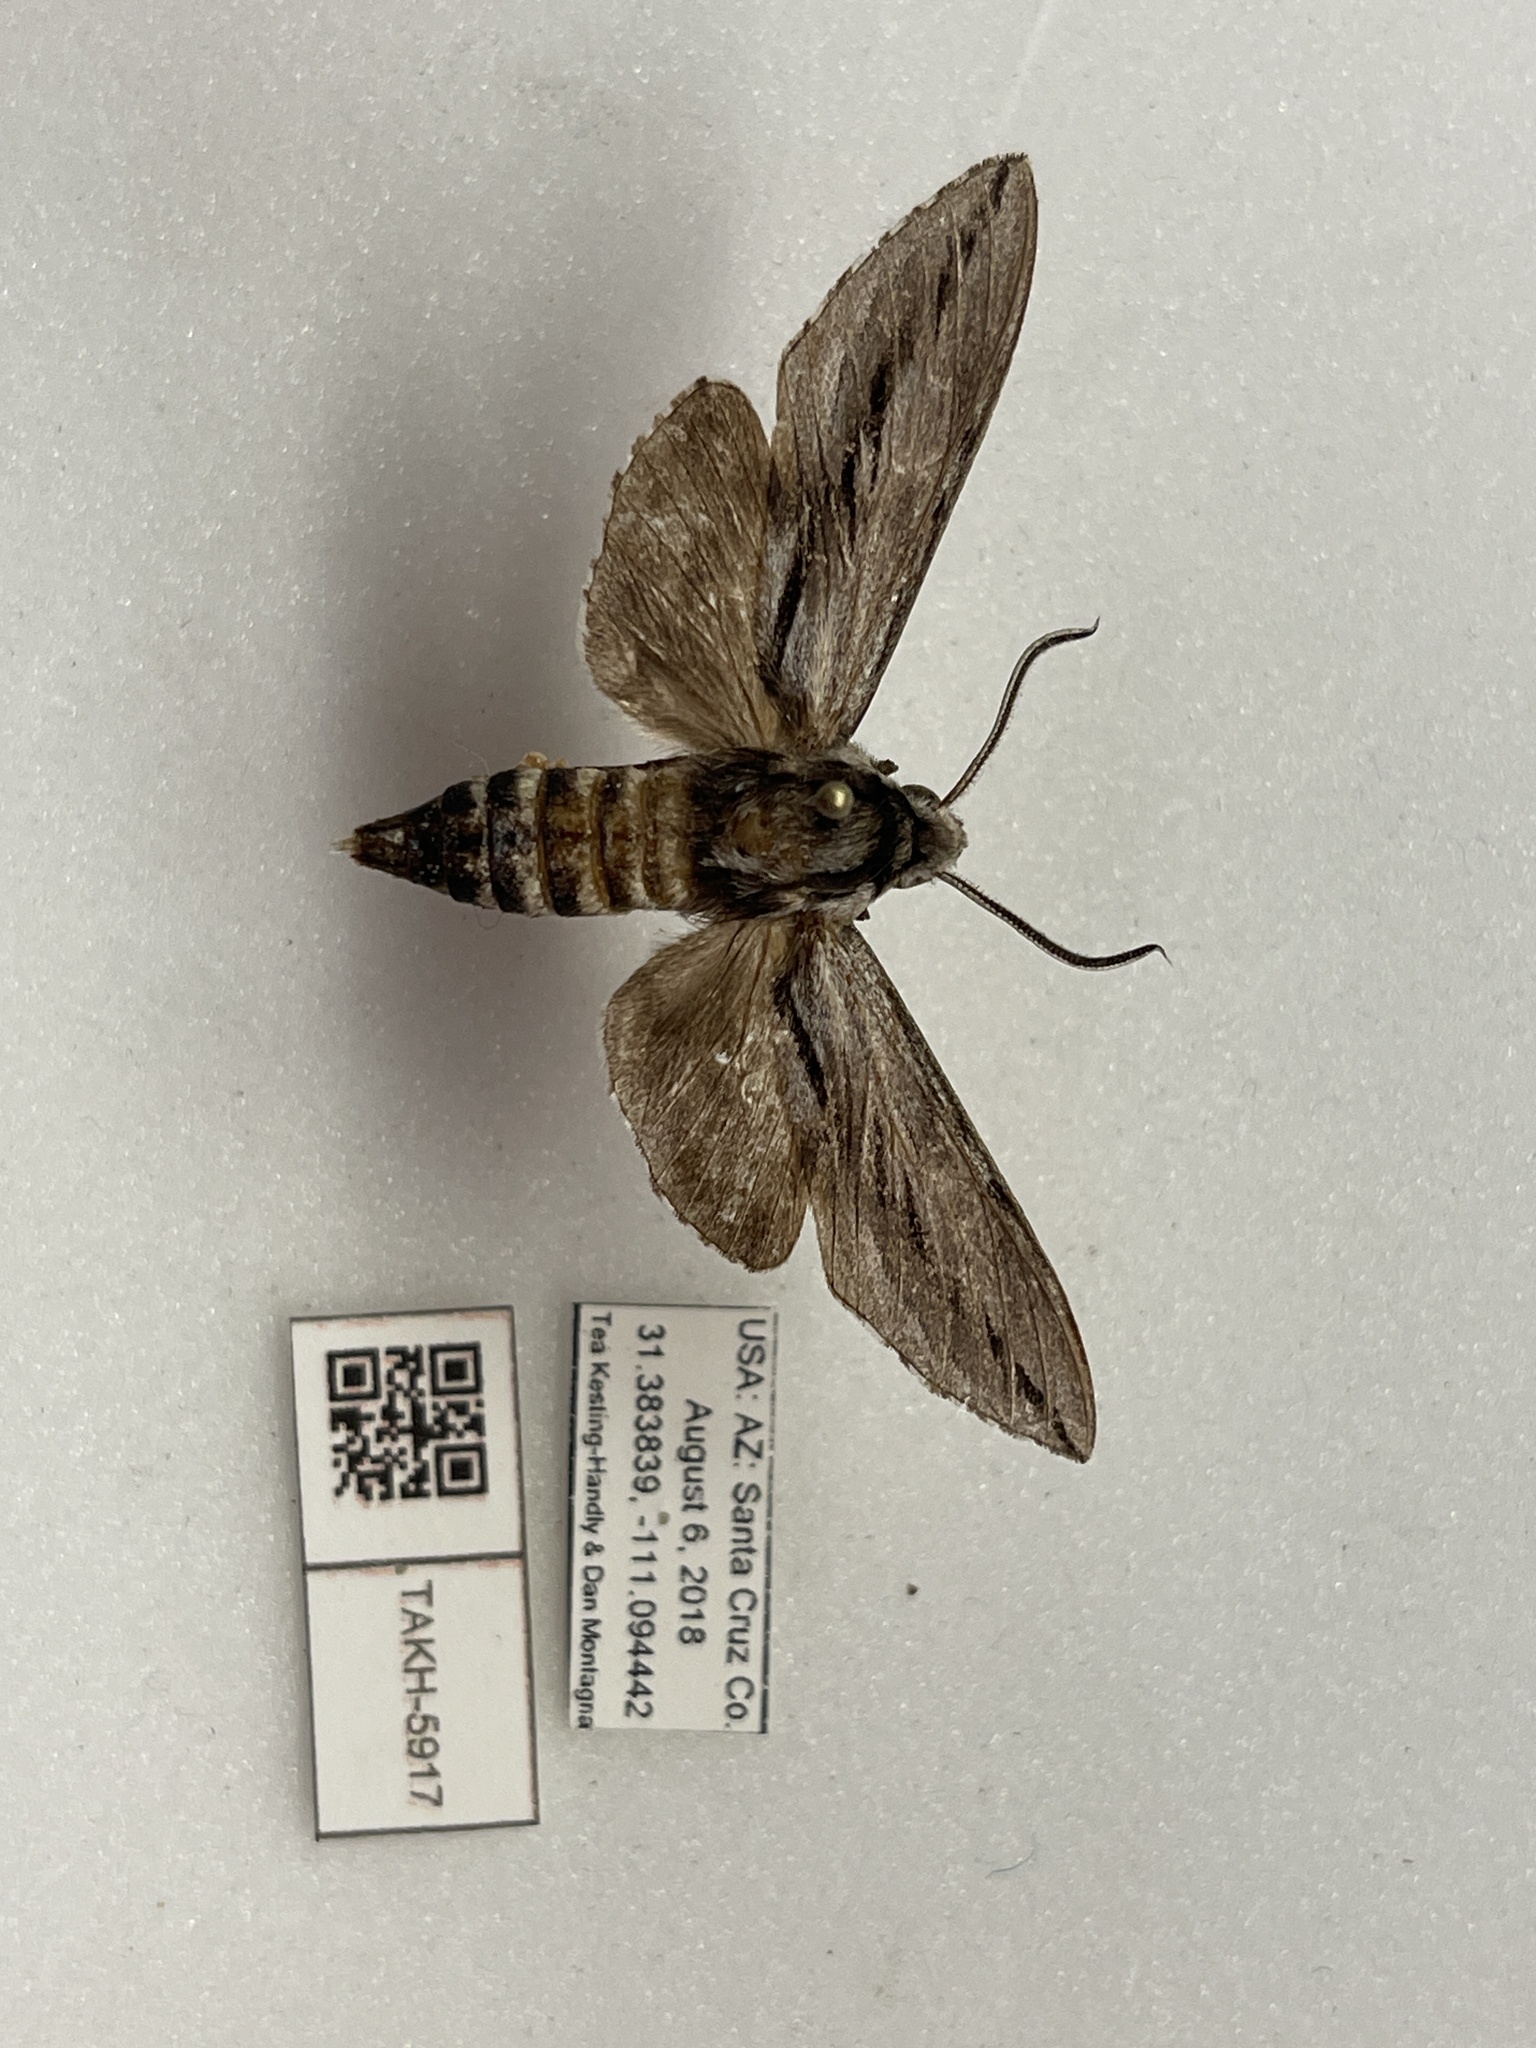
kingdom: Animalia
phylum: Arthropoda
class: Insecta
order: Lepidoptera
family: Sphingidae
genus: Sphinx
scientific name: Sphinx dollii
